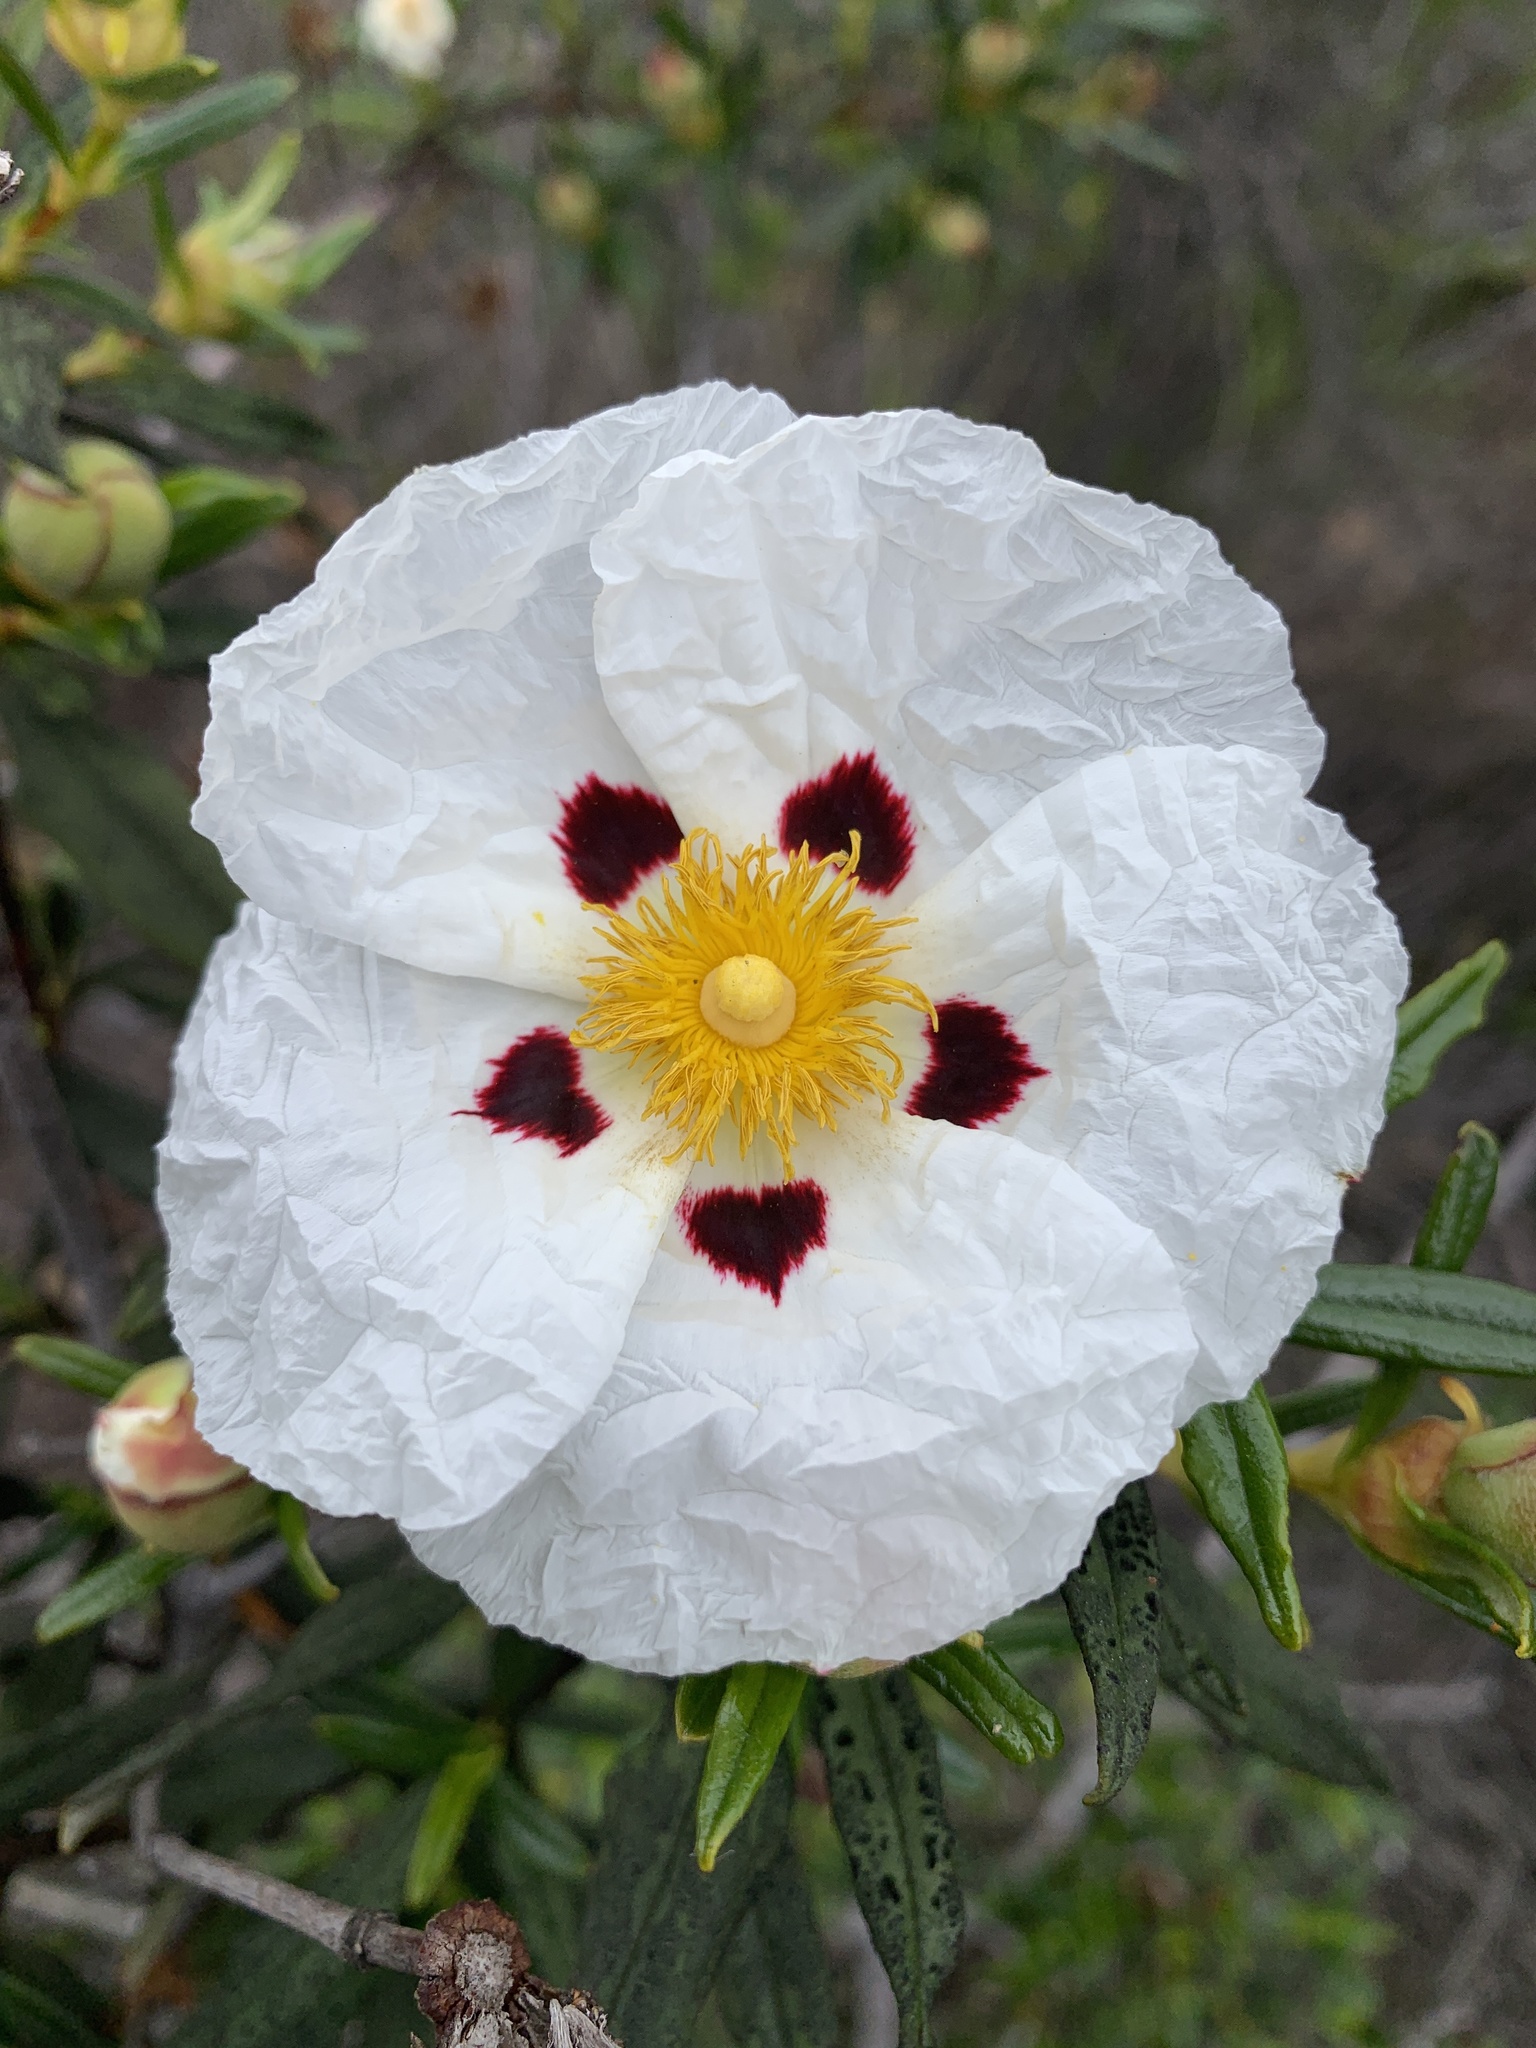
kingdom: Plantae
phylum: Tracheophyta
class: Magnoliopsida
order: Malvales
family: Cistaceae
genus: Cistus
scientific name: Cistus ladanifer
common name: Common gum cistus
